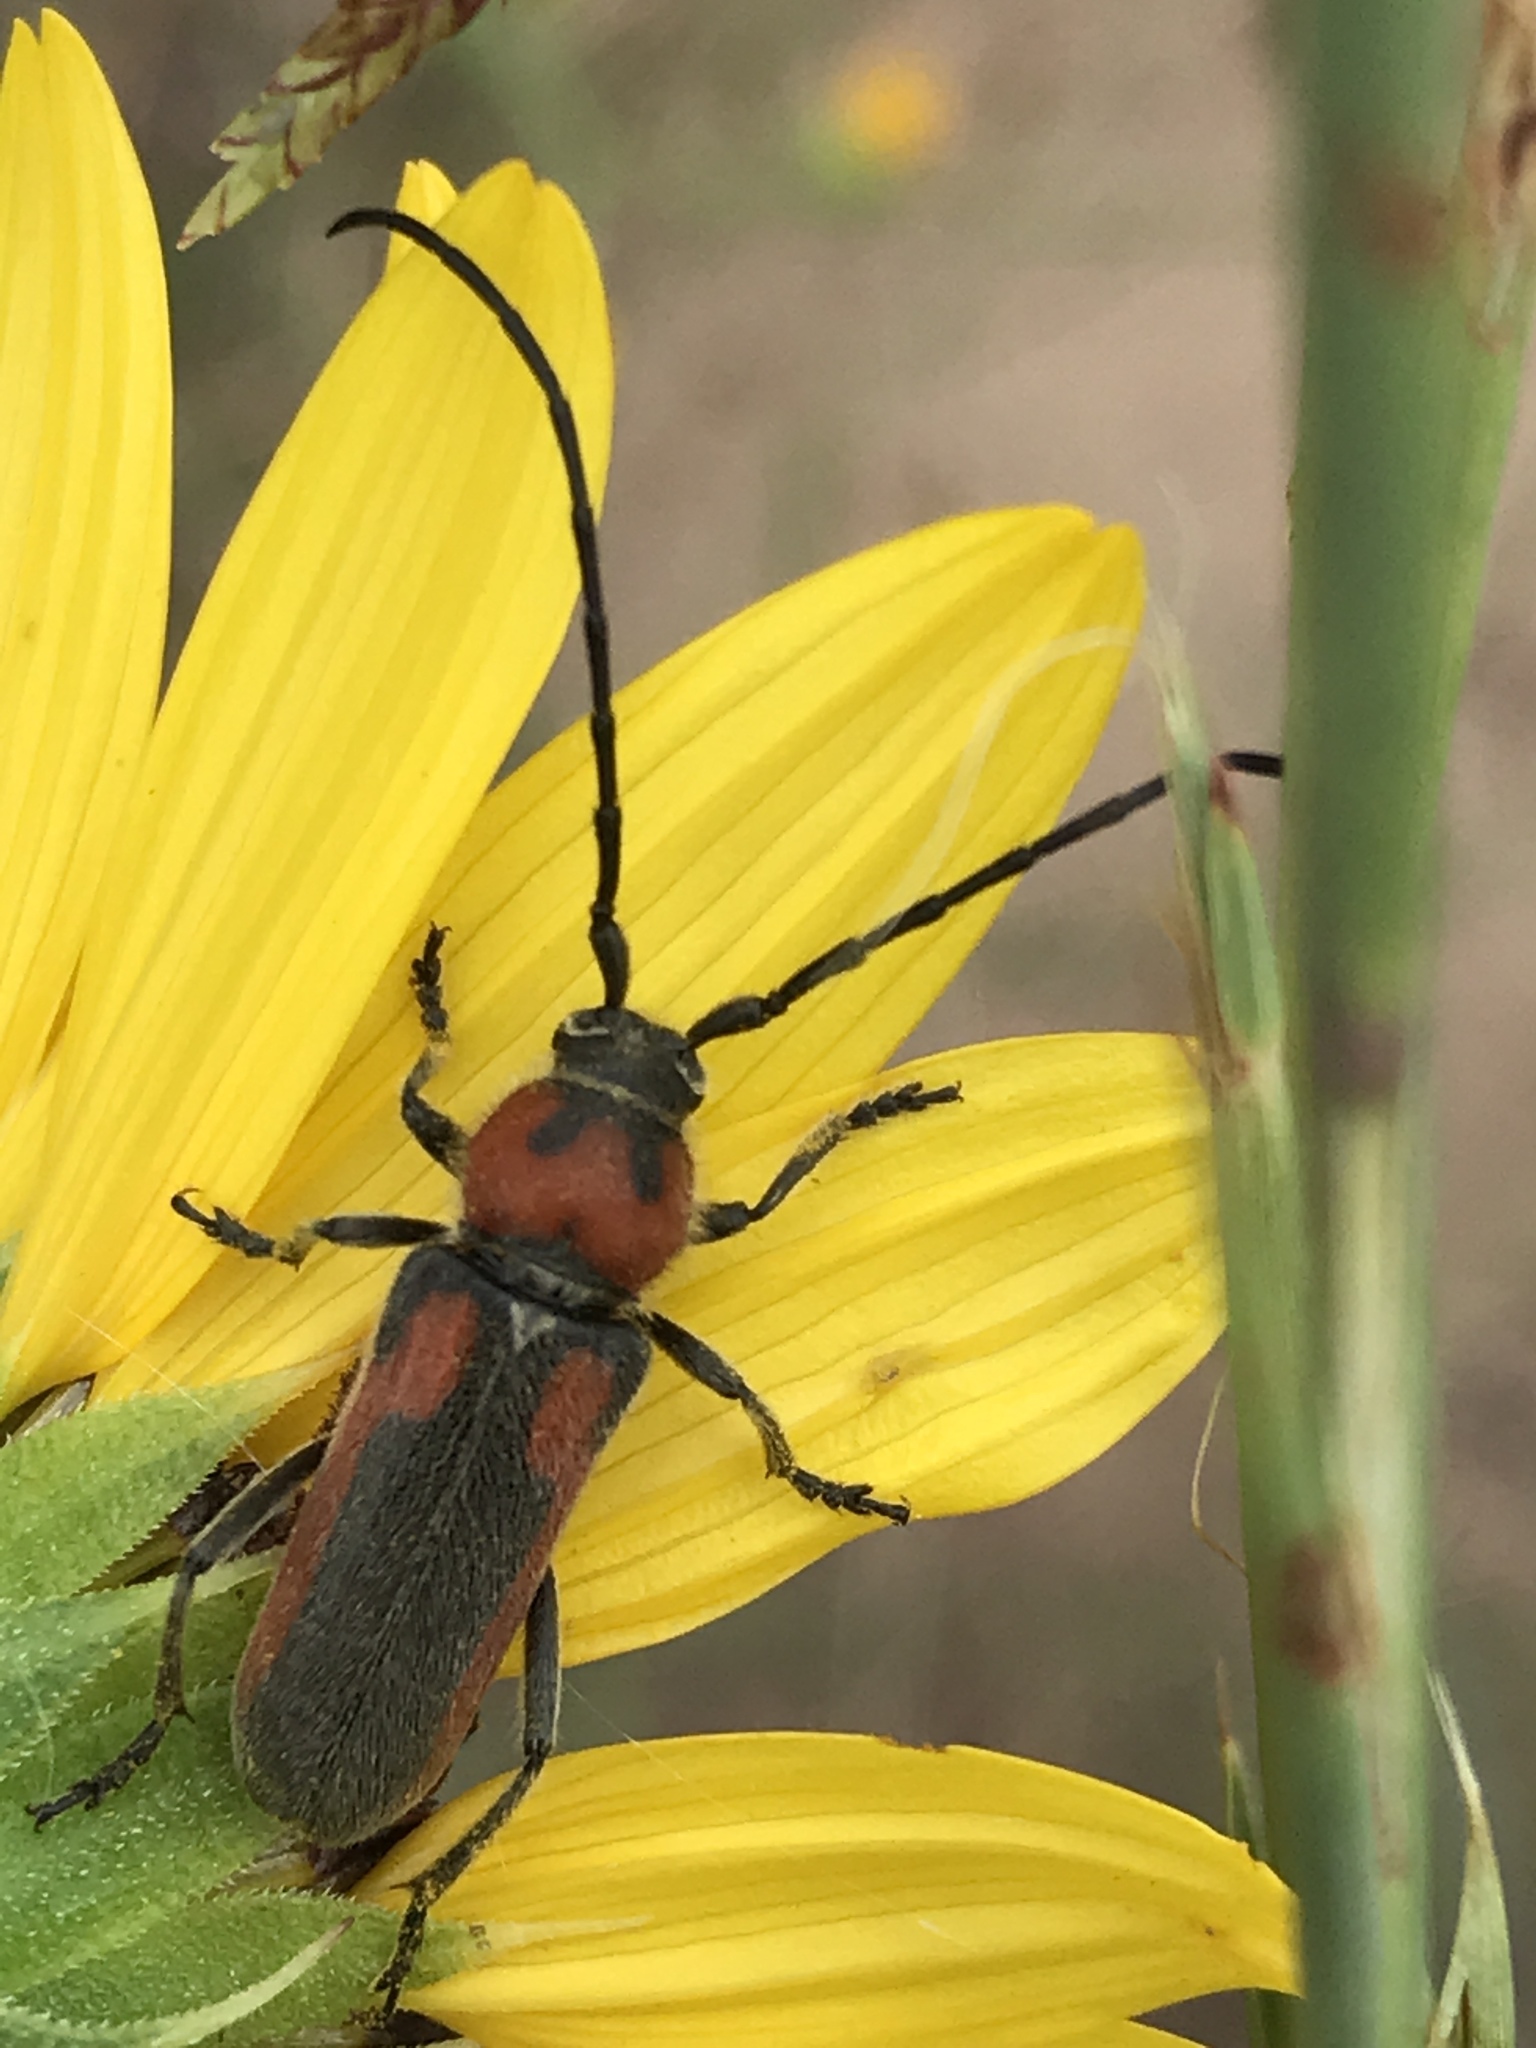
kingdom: Animalia
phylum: Arthropoda
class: Insecta
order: Coleoptera
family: Cerambycidae
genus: Crossidius
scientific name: Crossidius discoideus
